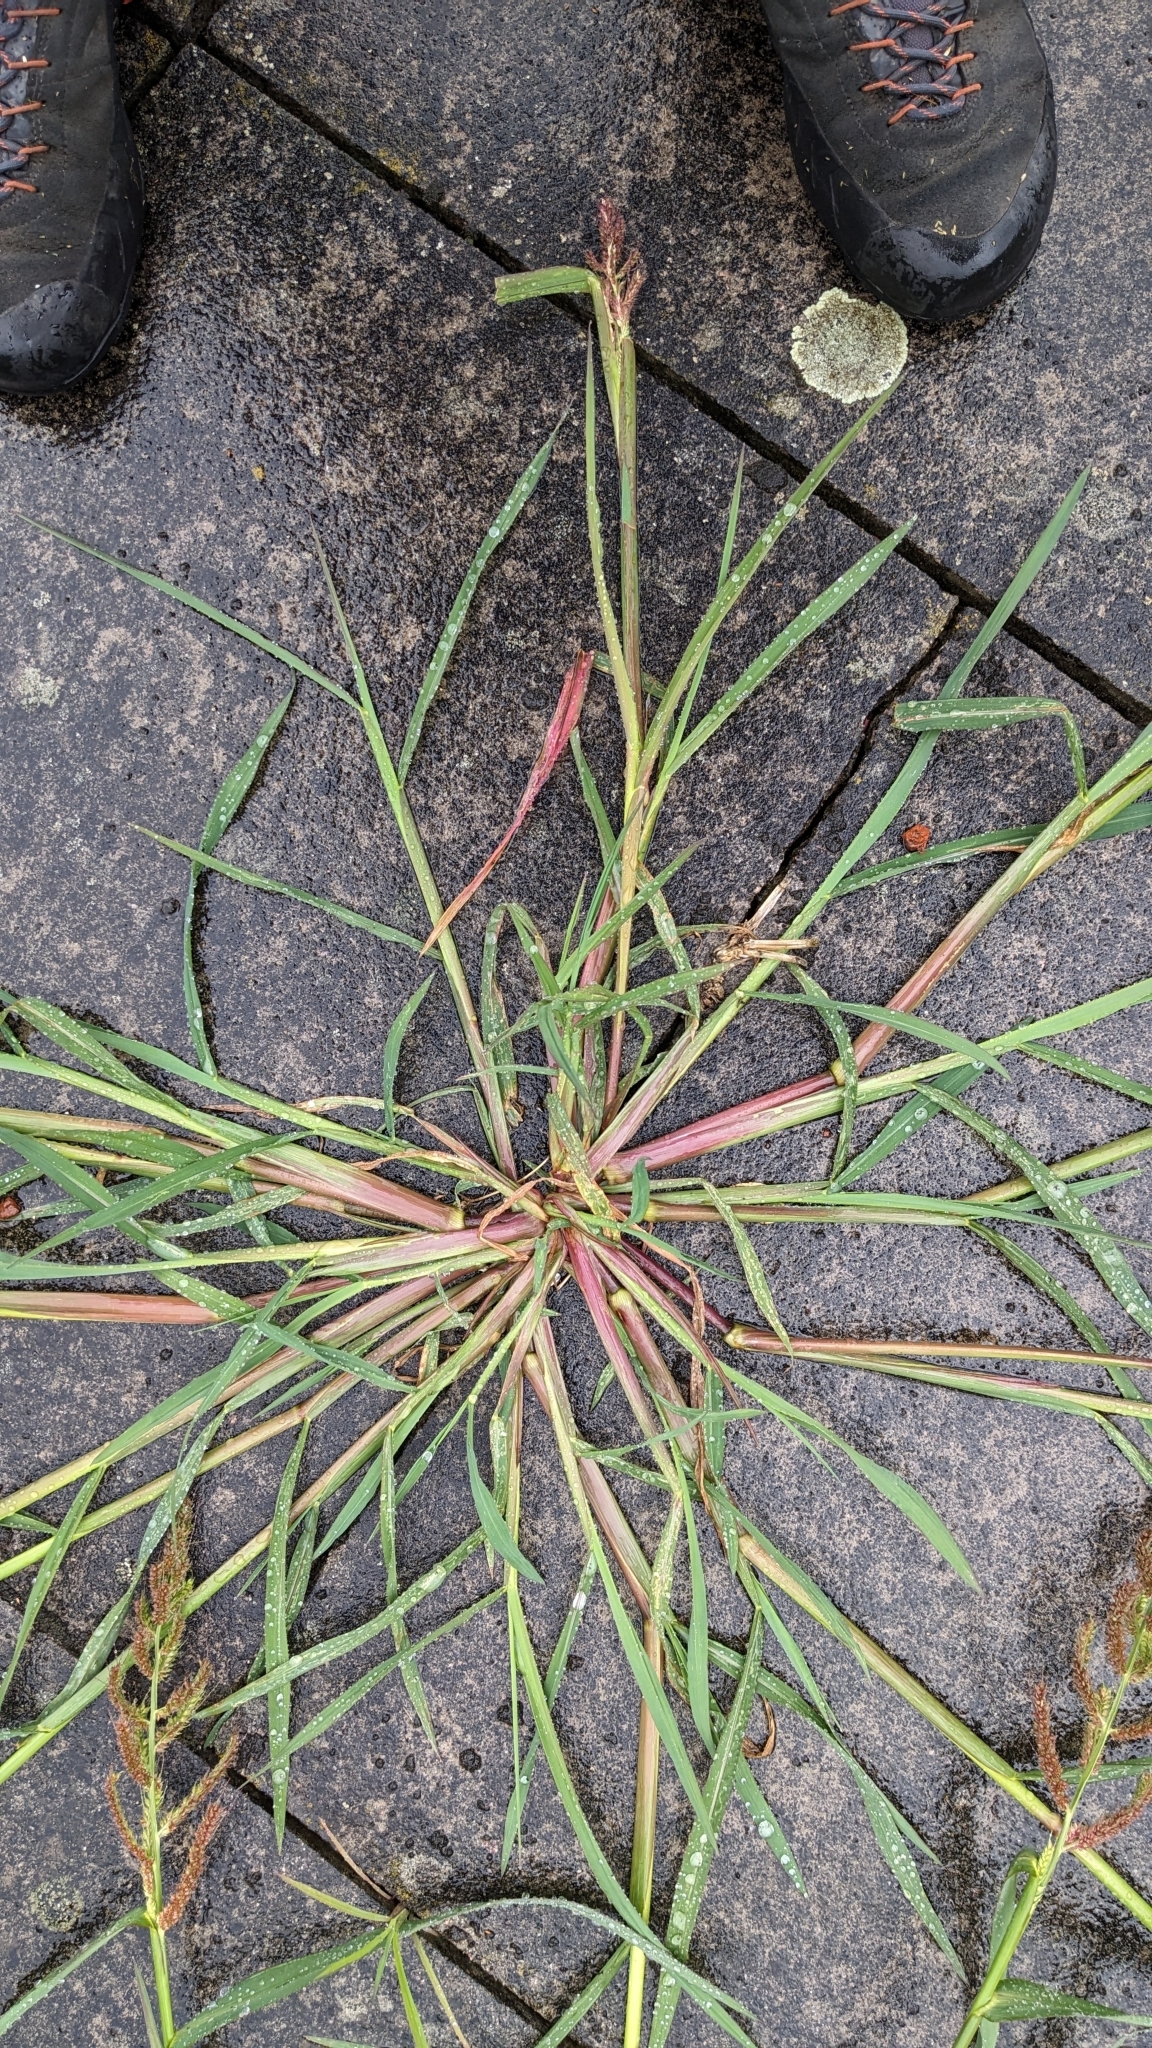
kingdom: Plantae
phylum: Tracheophyta
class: Liliopsida
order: Poales
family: Poaceae
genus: Echinochloa
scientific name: Echinochloa crus-galli
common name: Cockspur
